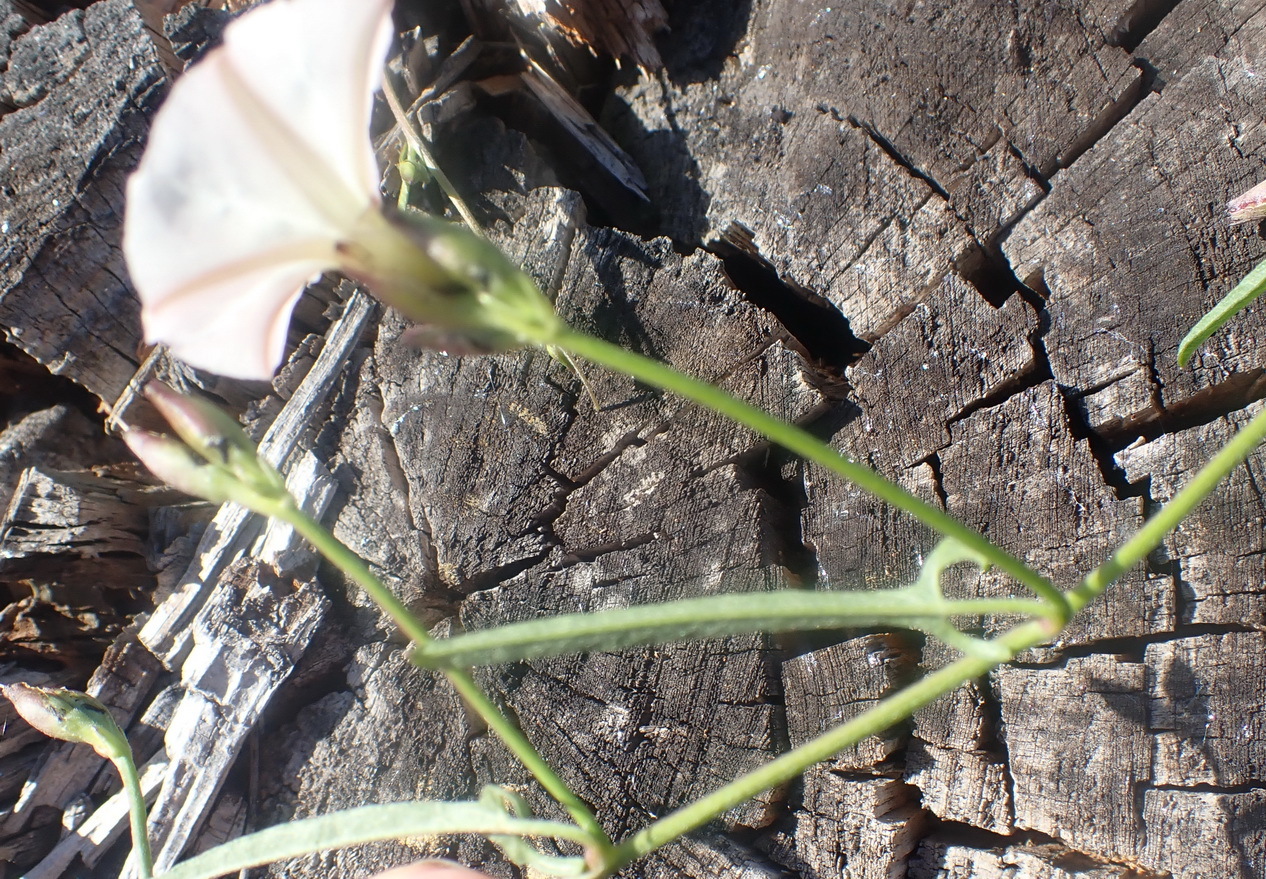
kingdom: Plantae
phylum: Tracheophyta
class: Magnoliopsida
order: Solanales
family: Convolvulaceae
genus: Convolvulus
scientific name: Convolvulus sagittatus
